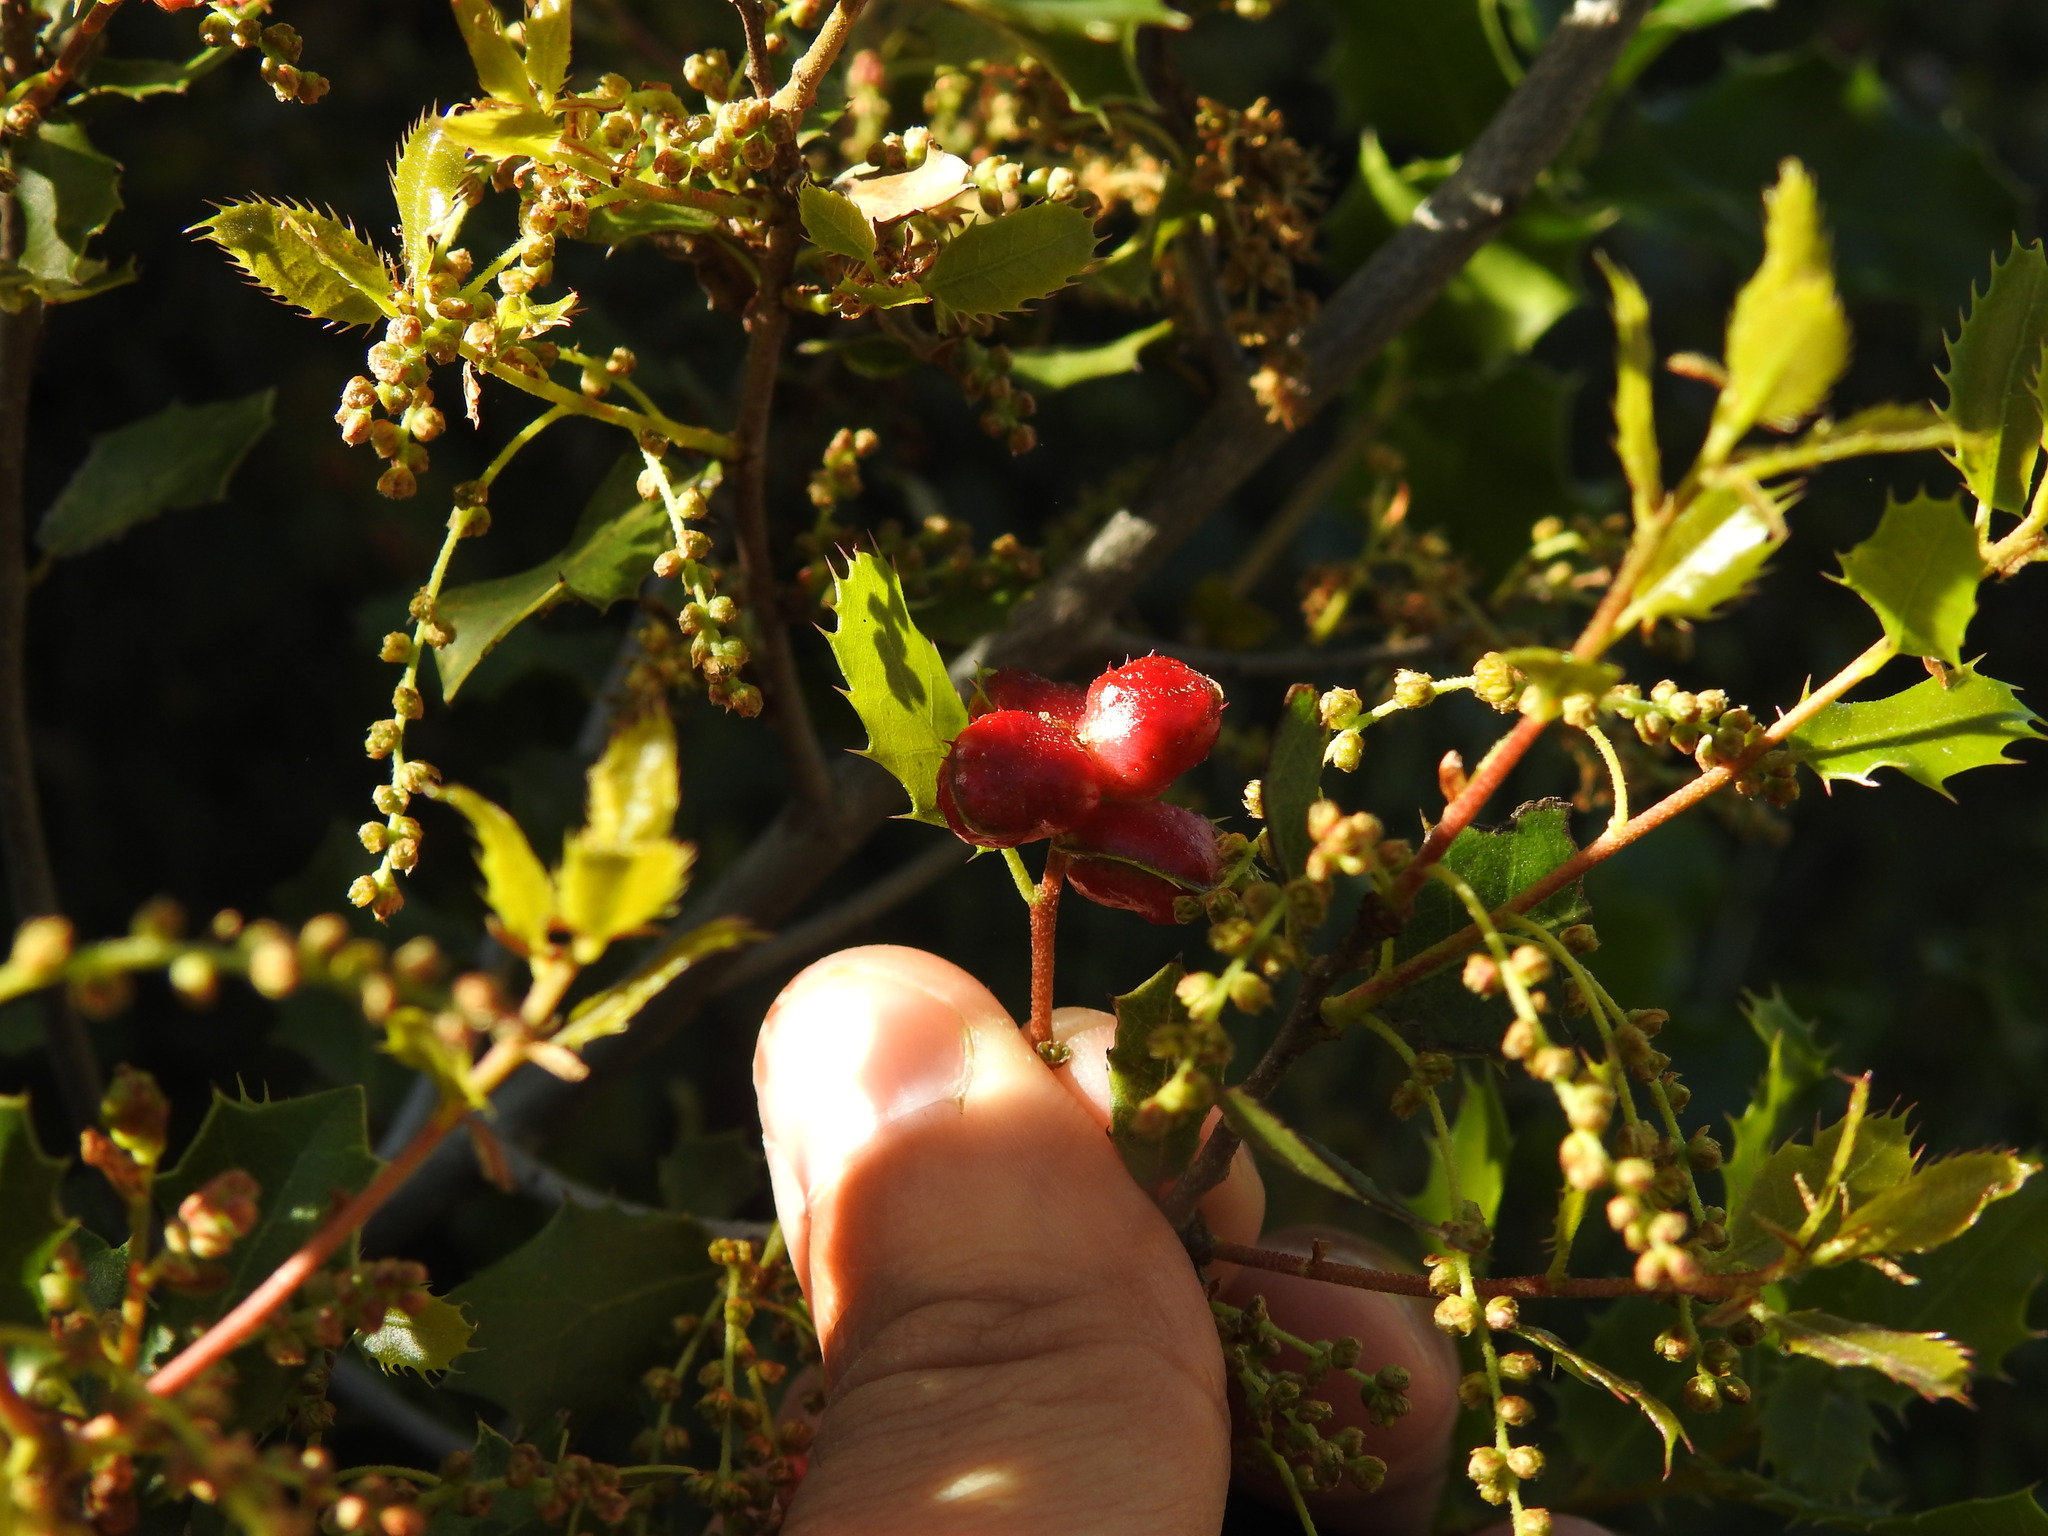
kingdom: Animalia
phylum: Arthropoda
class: Insecta
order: Hymenoptera
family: Cynipidae
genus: Plagiotrochus
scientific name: Plagiotrochus quercusilicis
